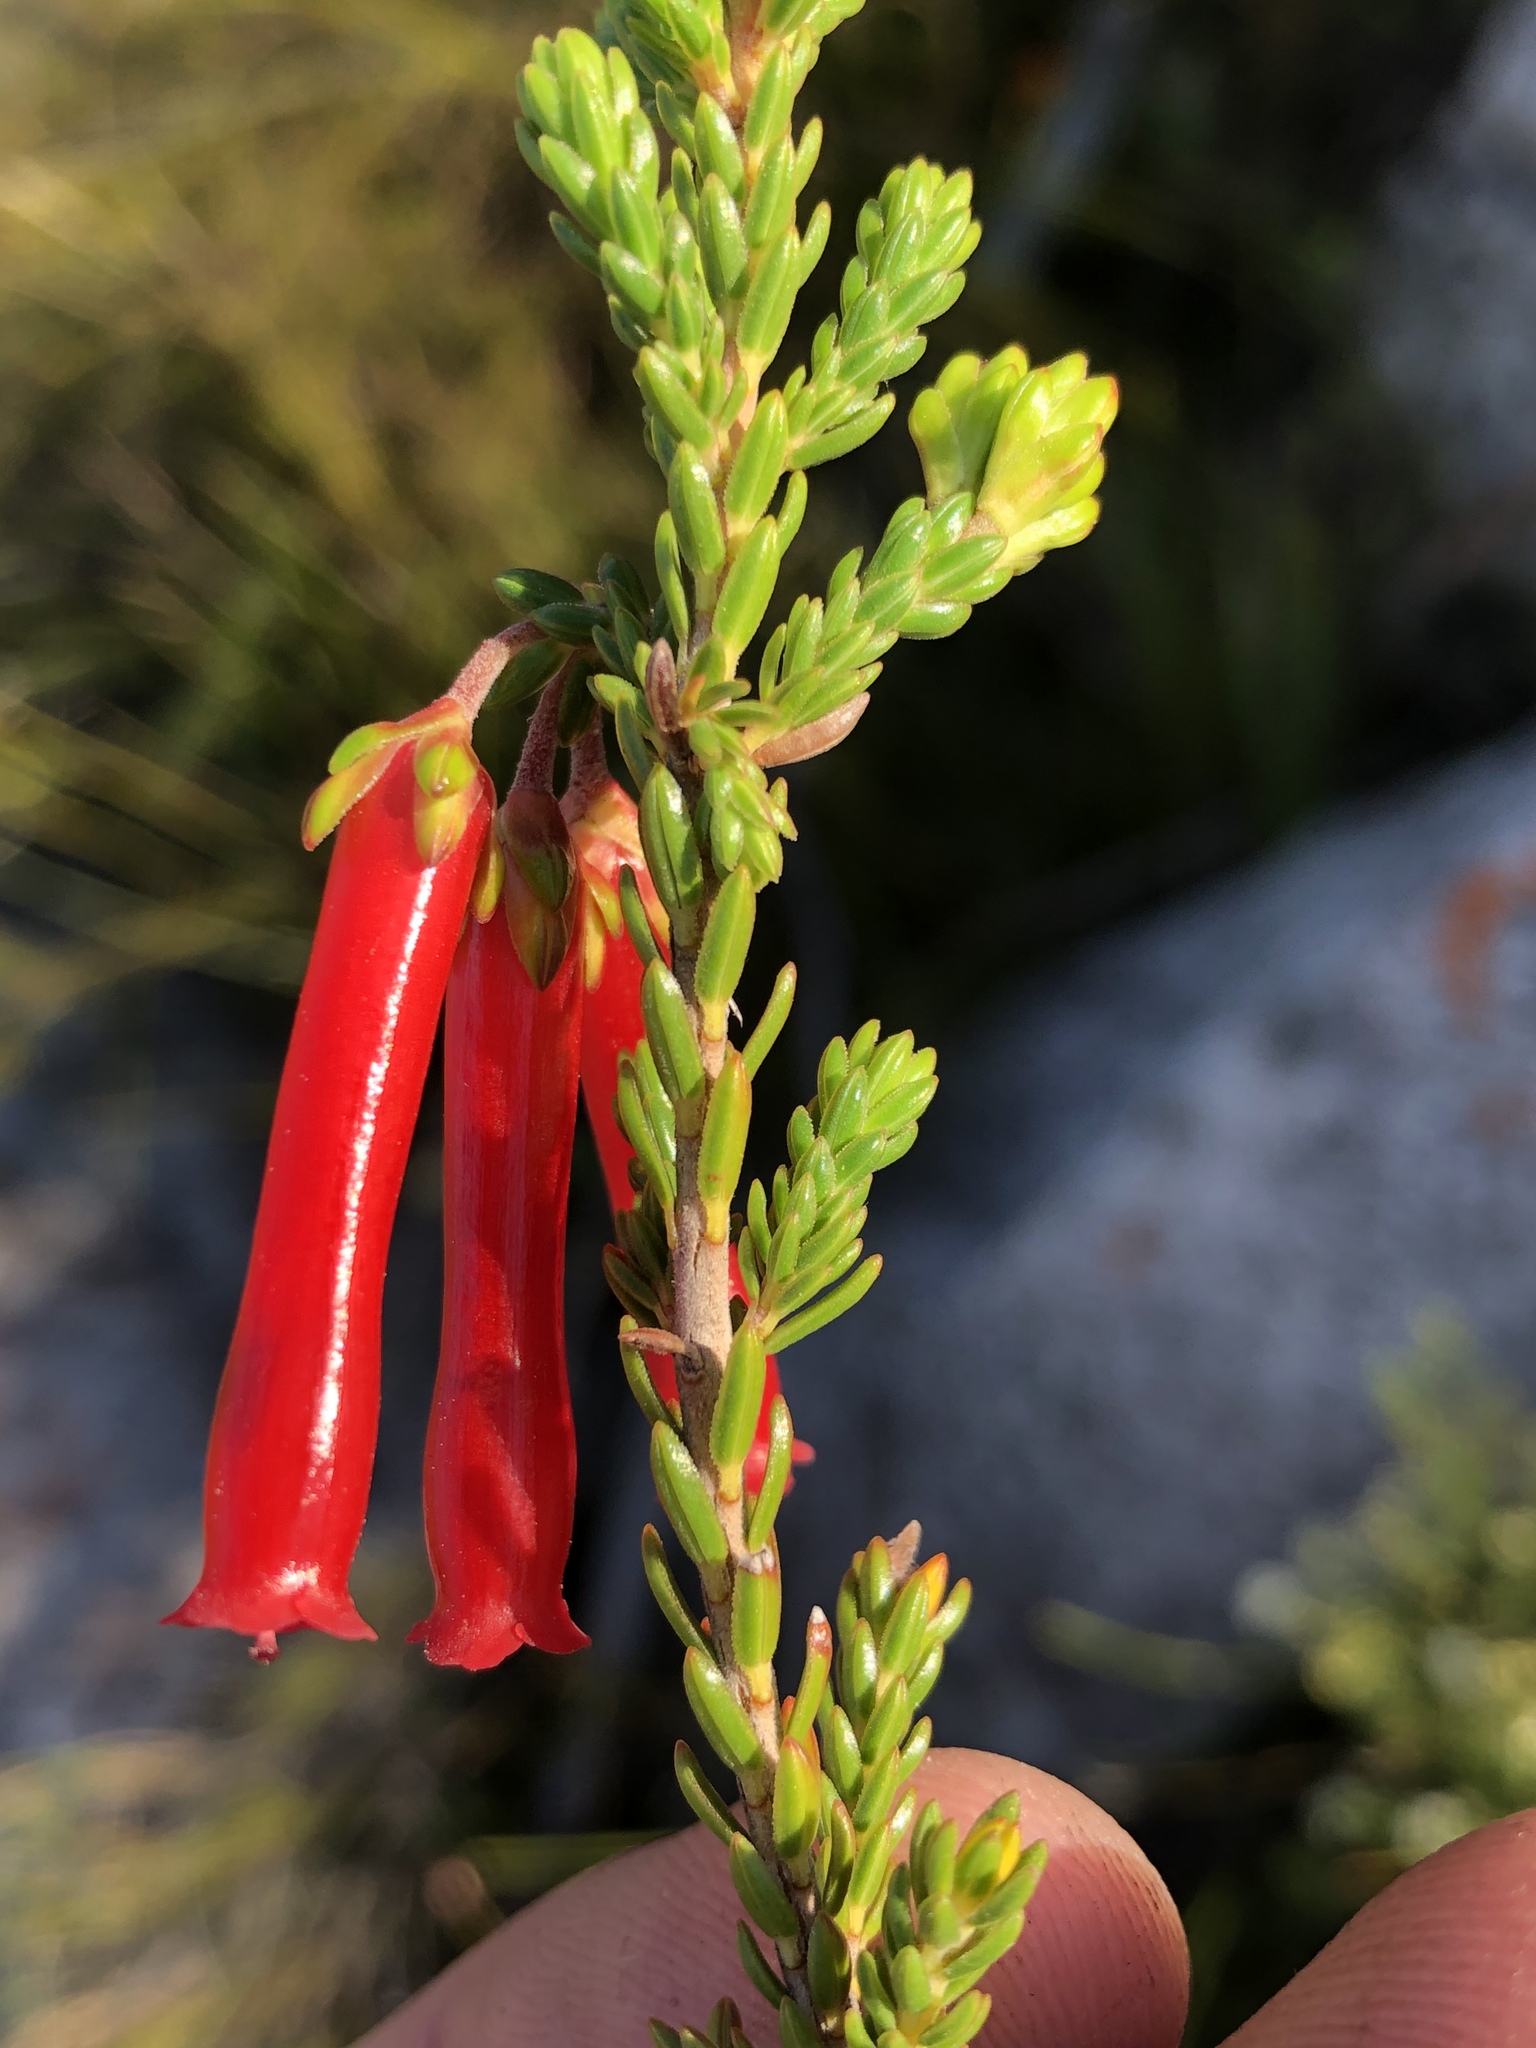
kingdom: Plantae
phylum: Tracheophyta
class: Magnoliopsida
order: Ericales
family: Ericaceae
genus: Erica
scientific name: Erica diaphana
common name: Heath
